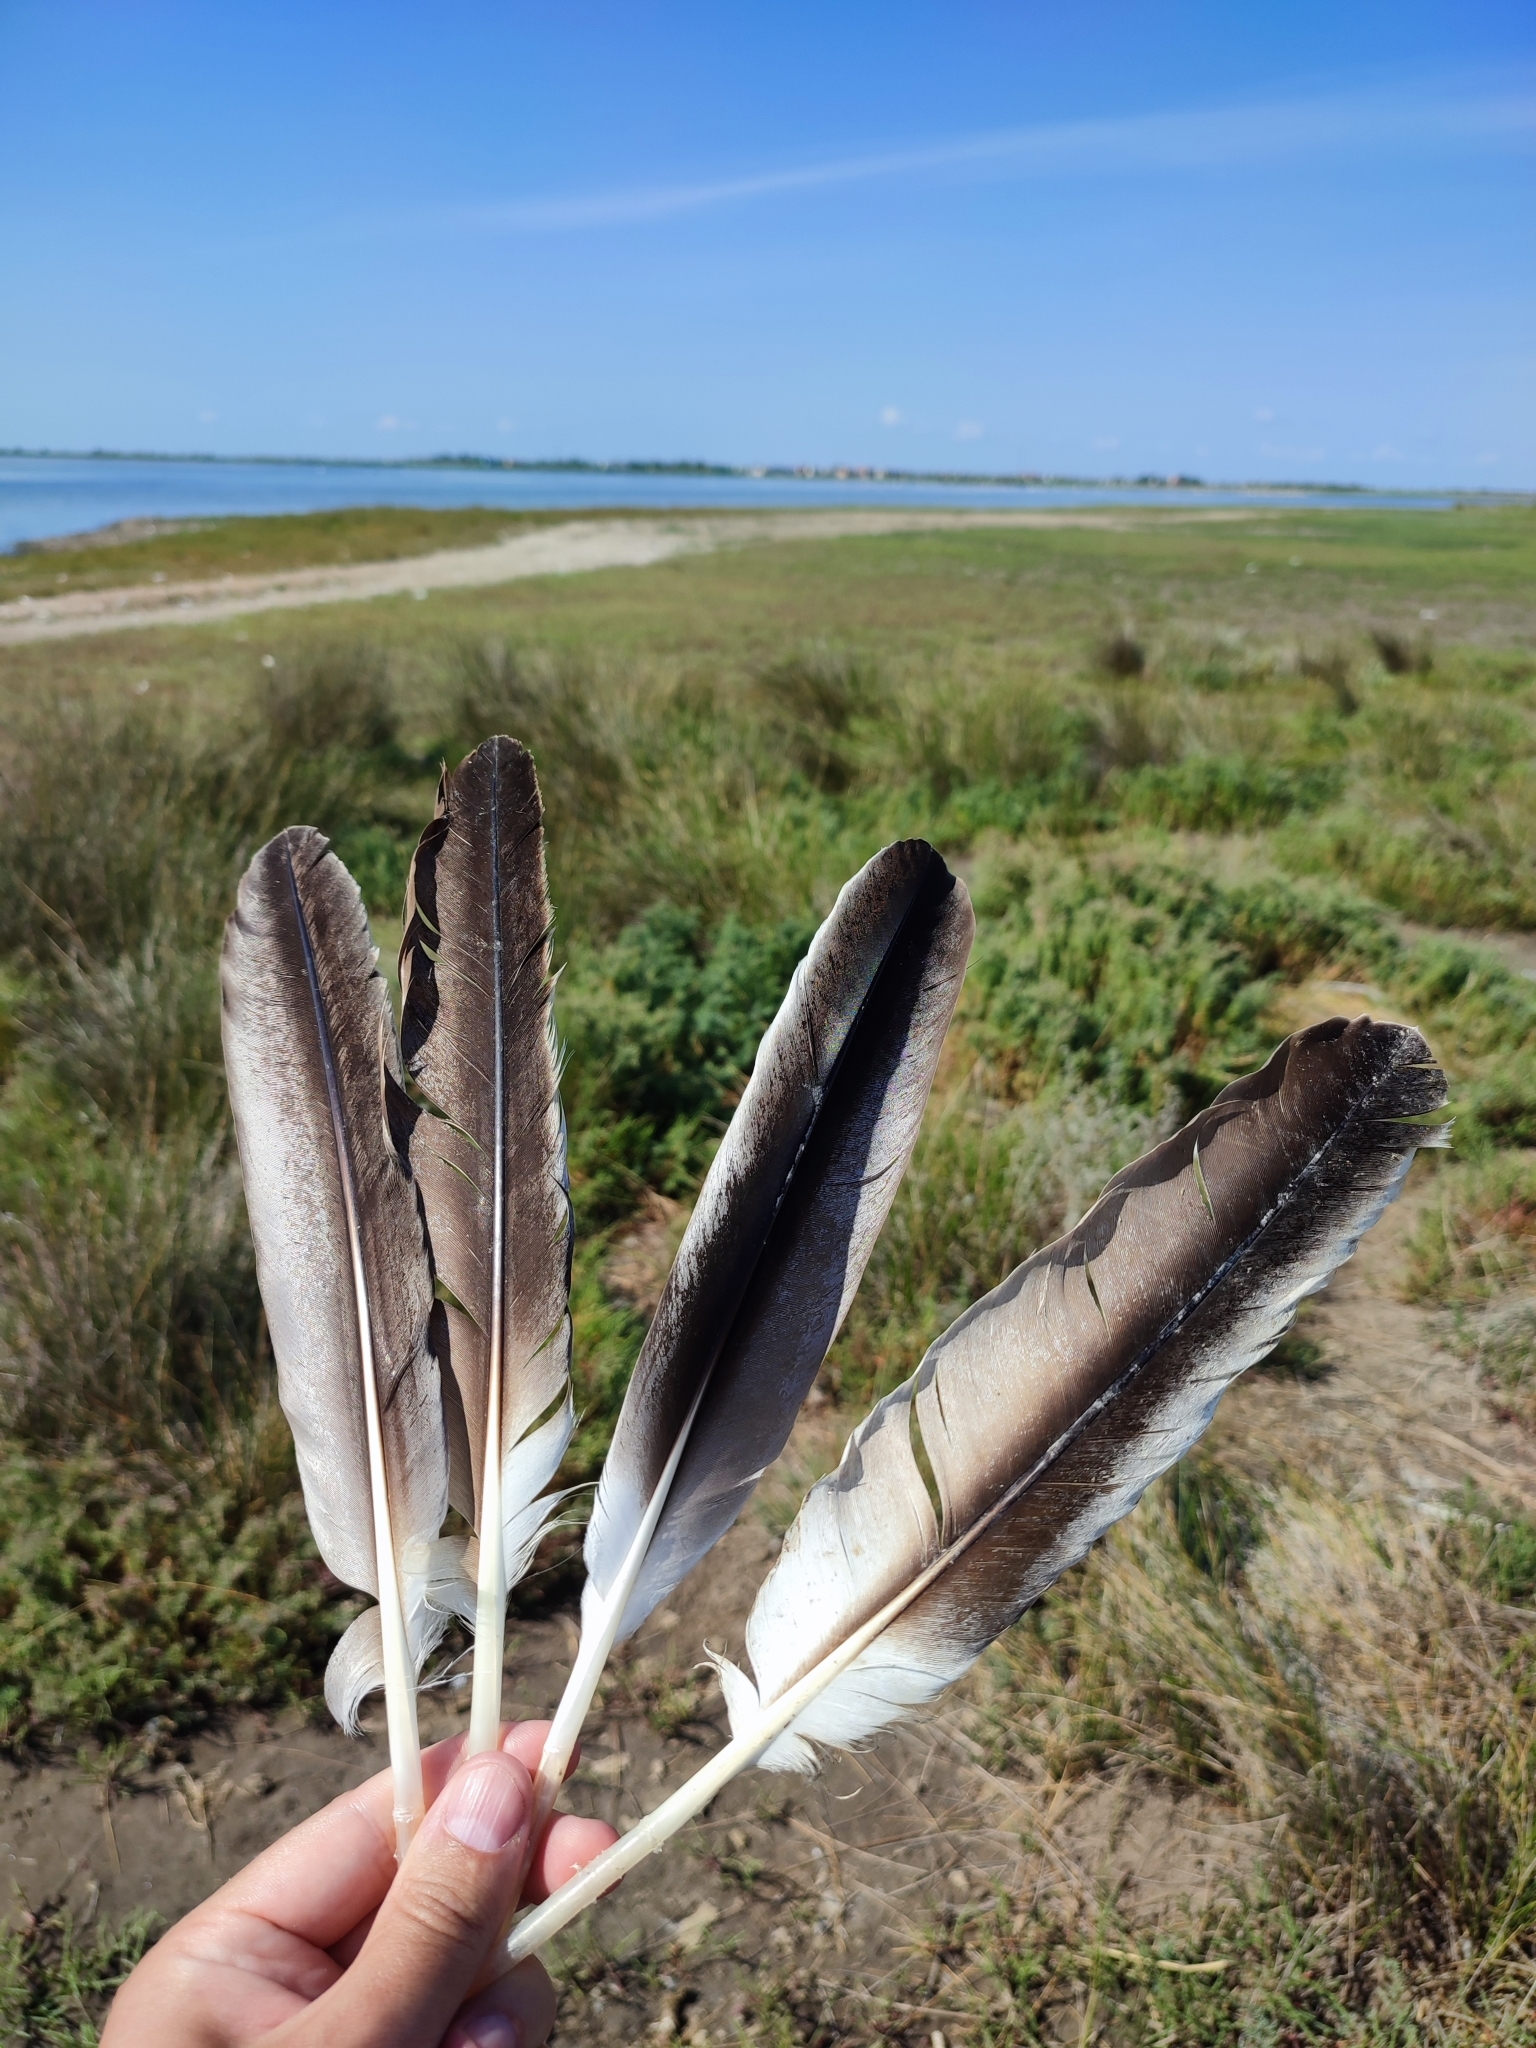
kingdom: Animalia
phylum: Chordata
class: Aves
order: Pelecaniformes
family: Pelecanidae
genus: Pelecanus
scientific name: Pelecanus onocrotalus
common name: Great white pelican
